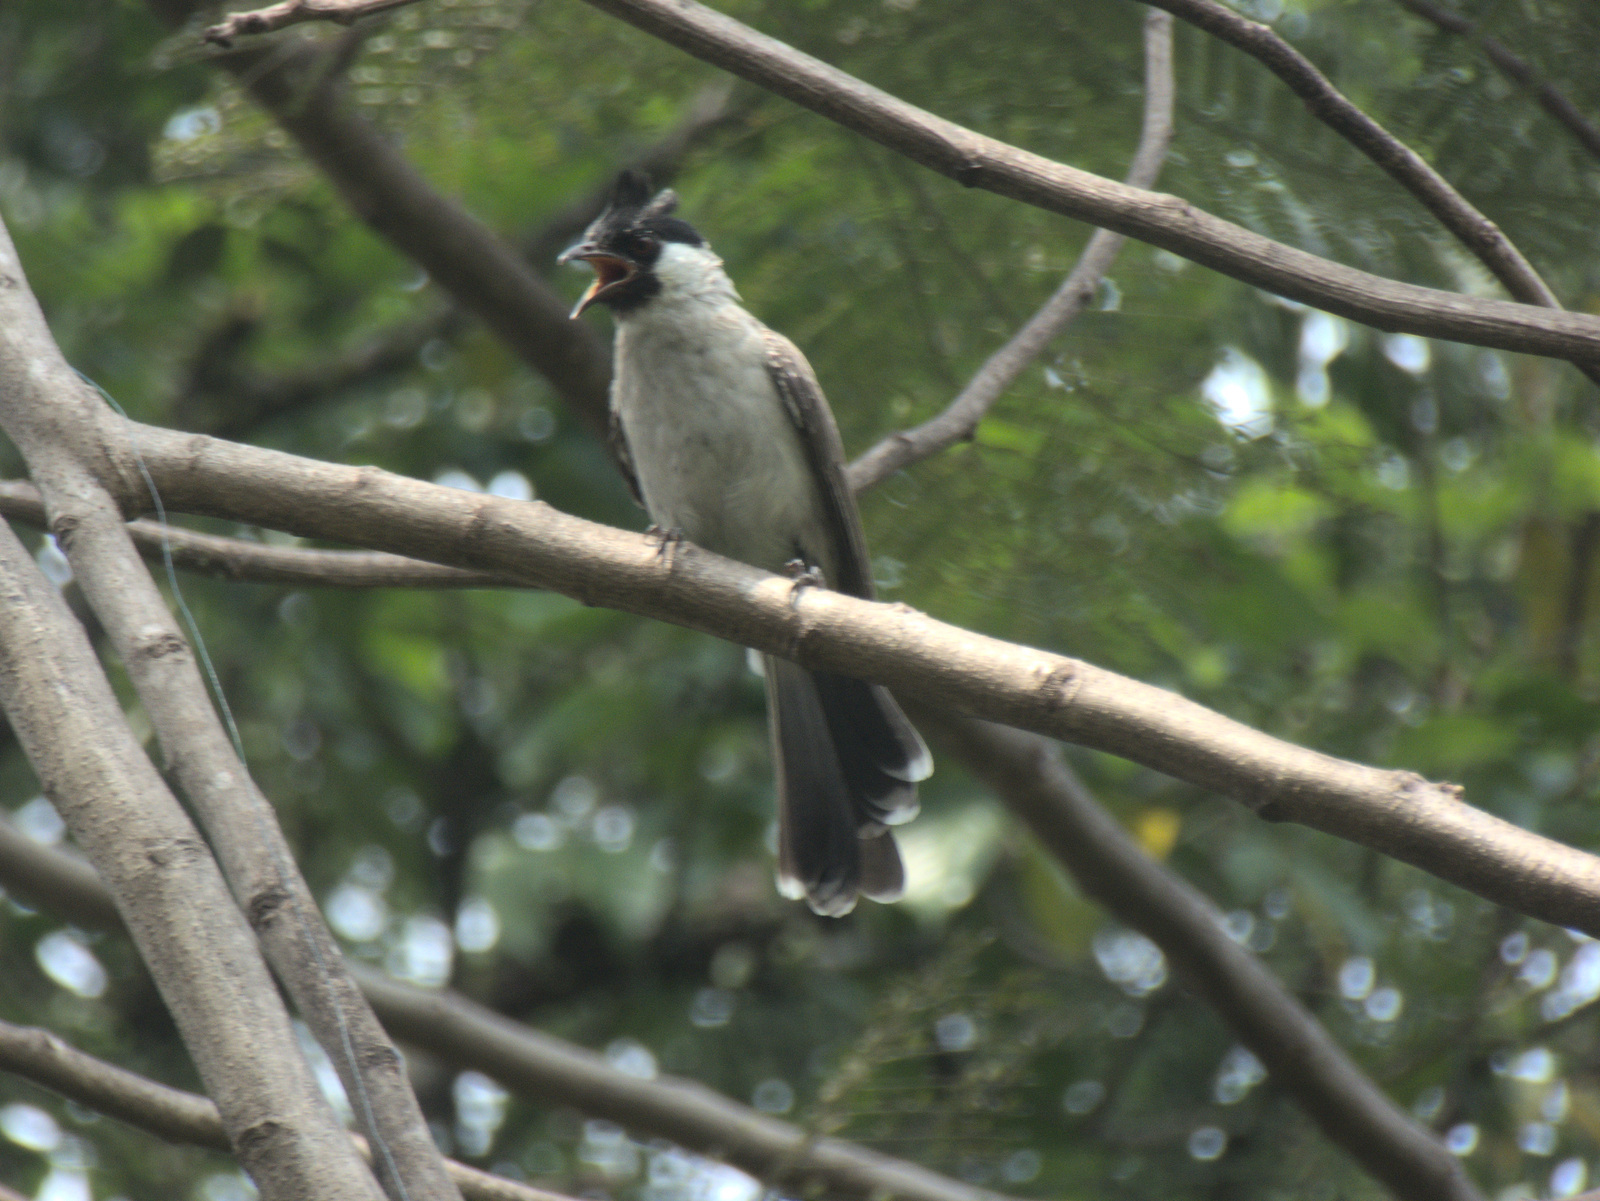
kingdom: Animalia
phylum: Chordata
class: Aves
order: Passeriformes
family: Pycnonotidae
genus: Pycnonotus
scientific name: Pycnonotus aurigaster
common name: Sooty-headed bulbul
